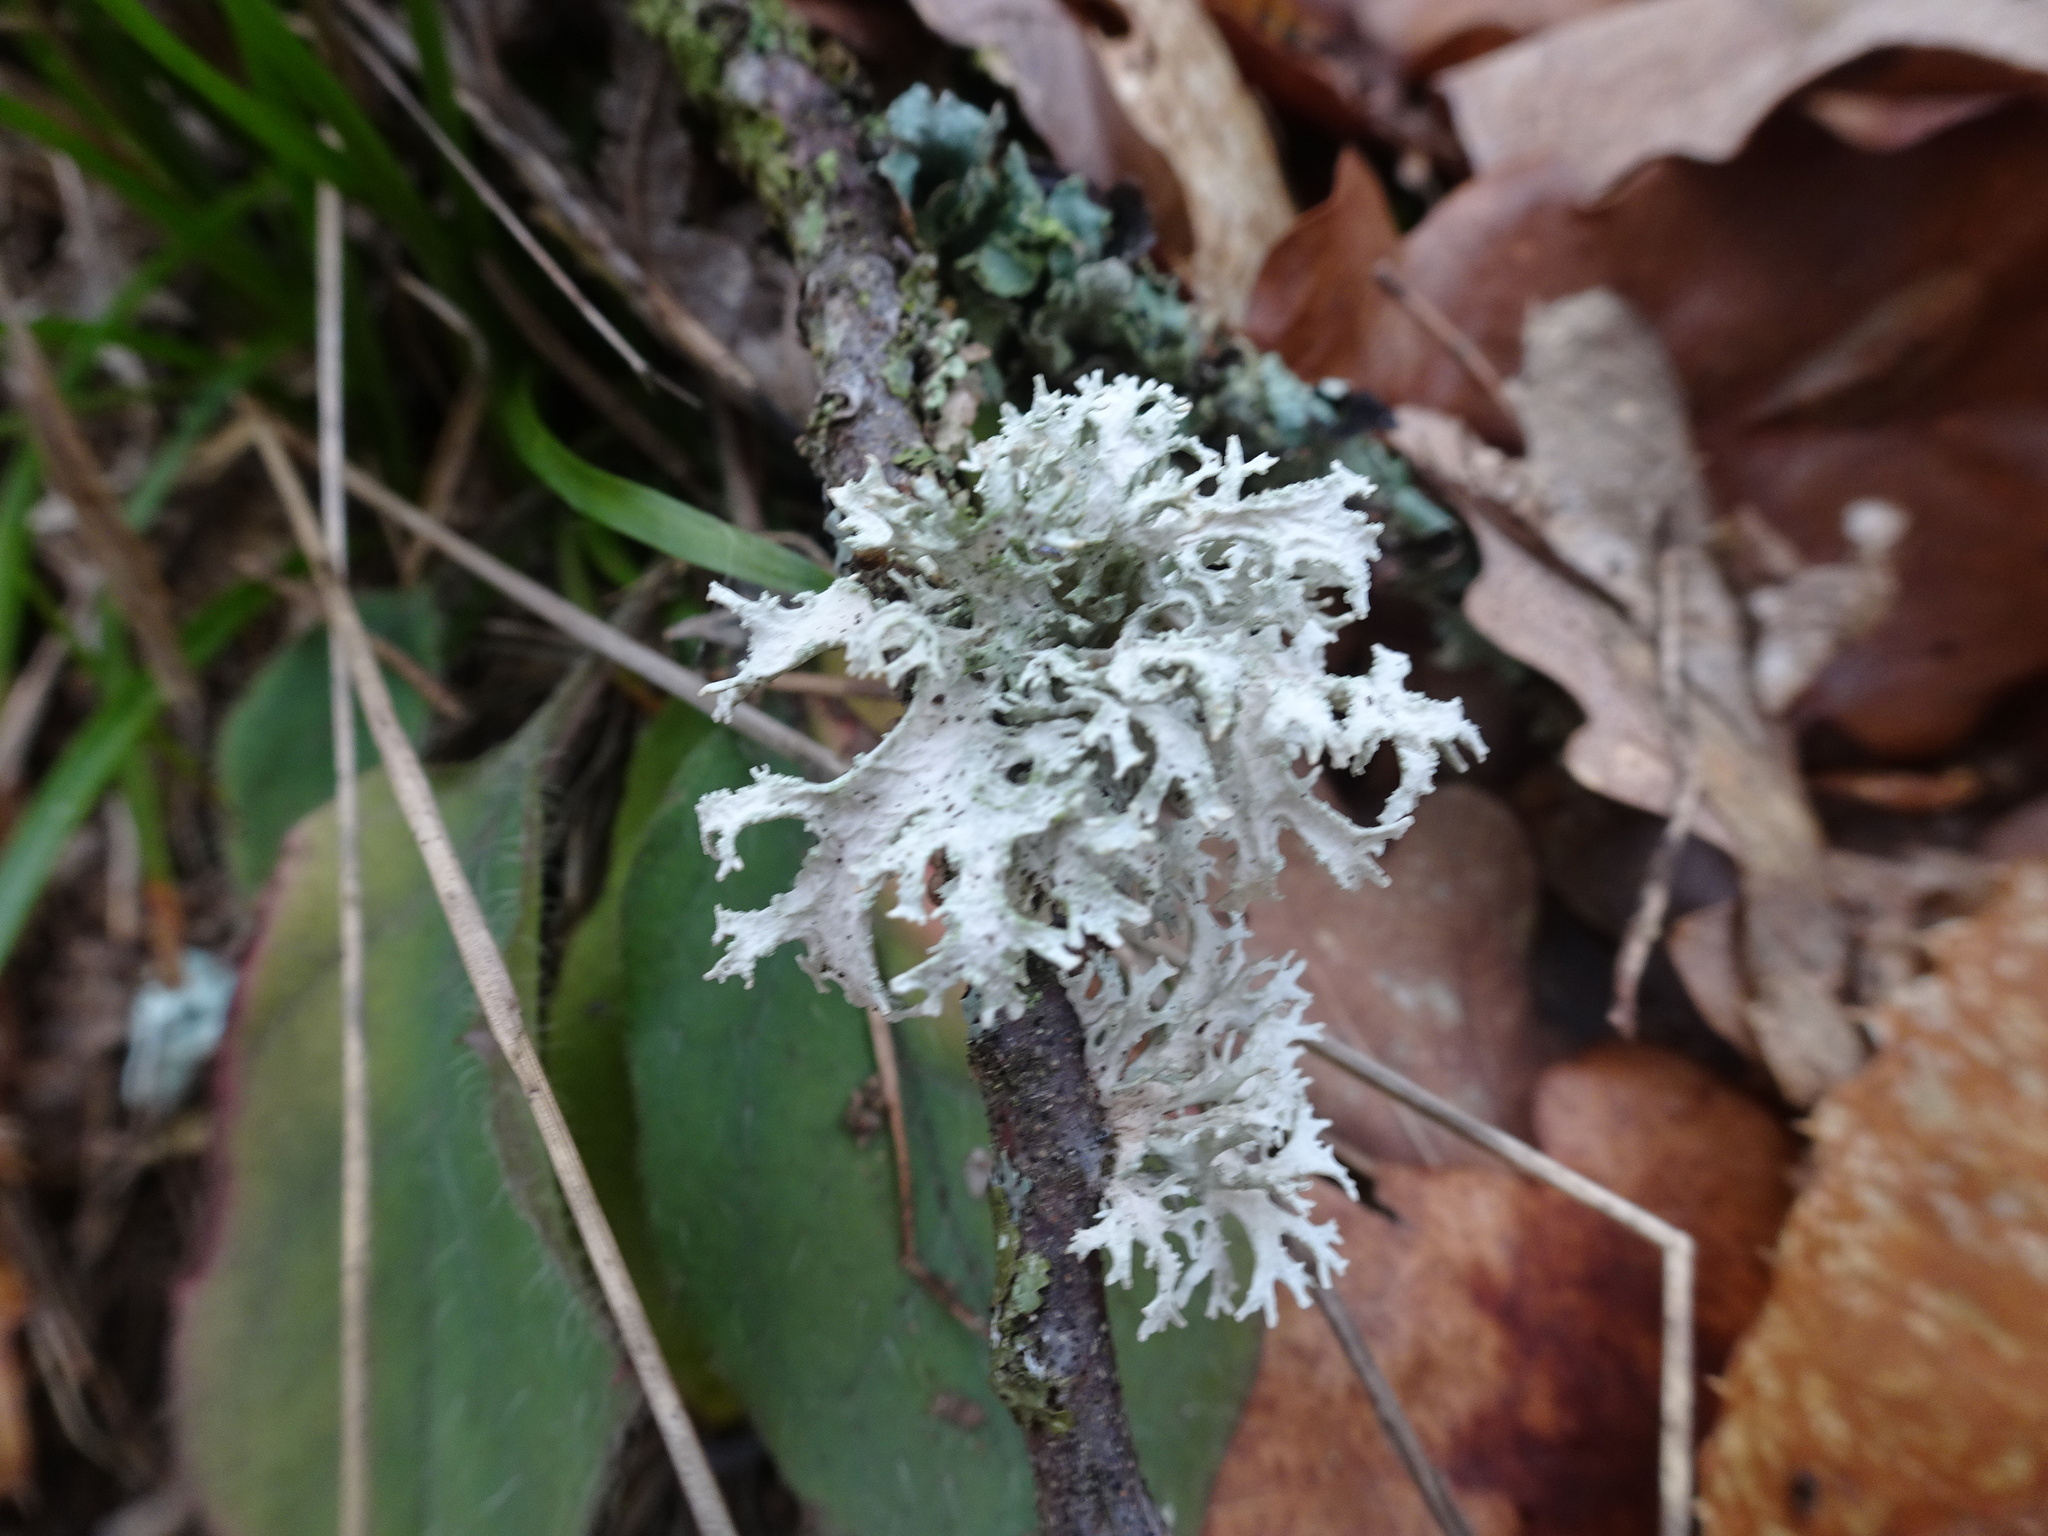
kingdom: Fungi
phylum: Ascomycota
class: Lecanoromycetes
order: Lecanorales
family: Parmeliaceae
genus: Evernia
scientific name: Evernia prunastri
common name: Oak moss
